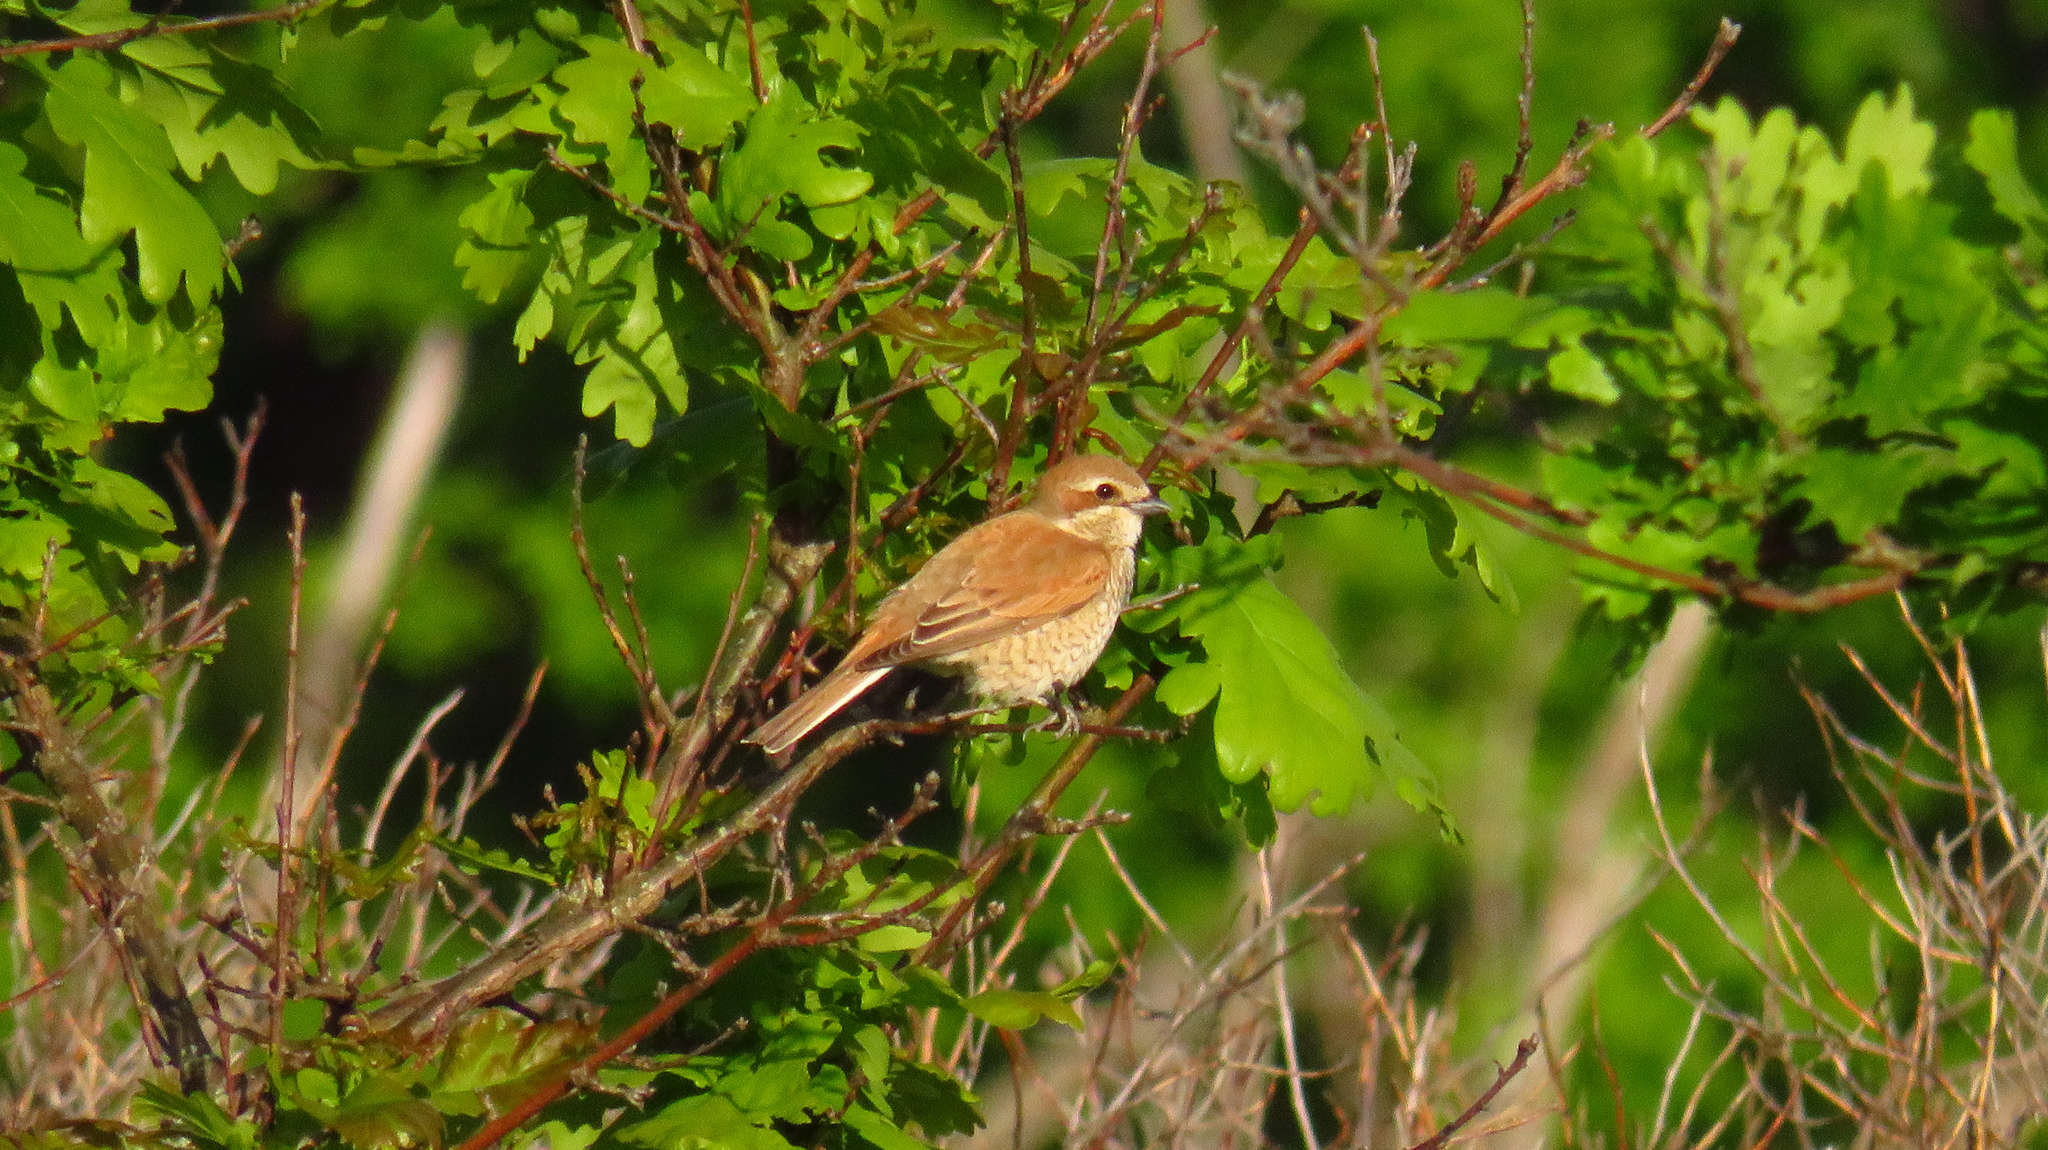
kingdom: Animalia
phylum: Chordata
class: Aves
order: Passeriformes
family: Laniidae
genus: Lanius
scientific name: Lanius collurio
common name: Red-backed shrike
